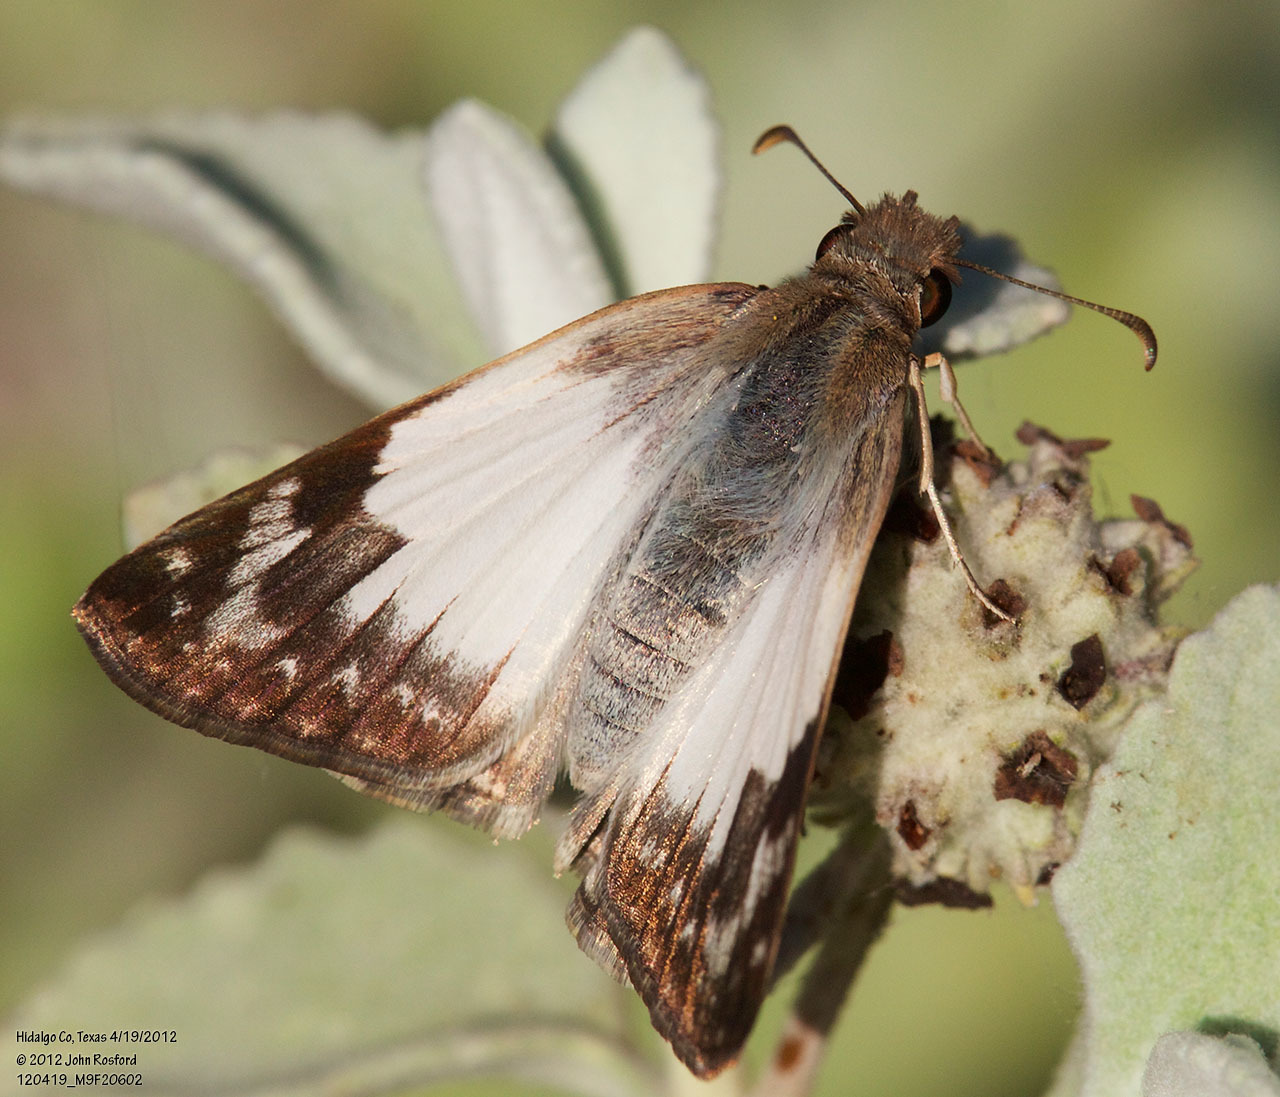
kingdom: Animalia
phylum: Arthropoda
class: Insecta
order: Lepidoptera
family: Hesperiidae
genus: Heliopetes
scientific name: Heliopetes laviana
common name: Laviana white-skipper
